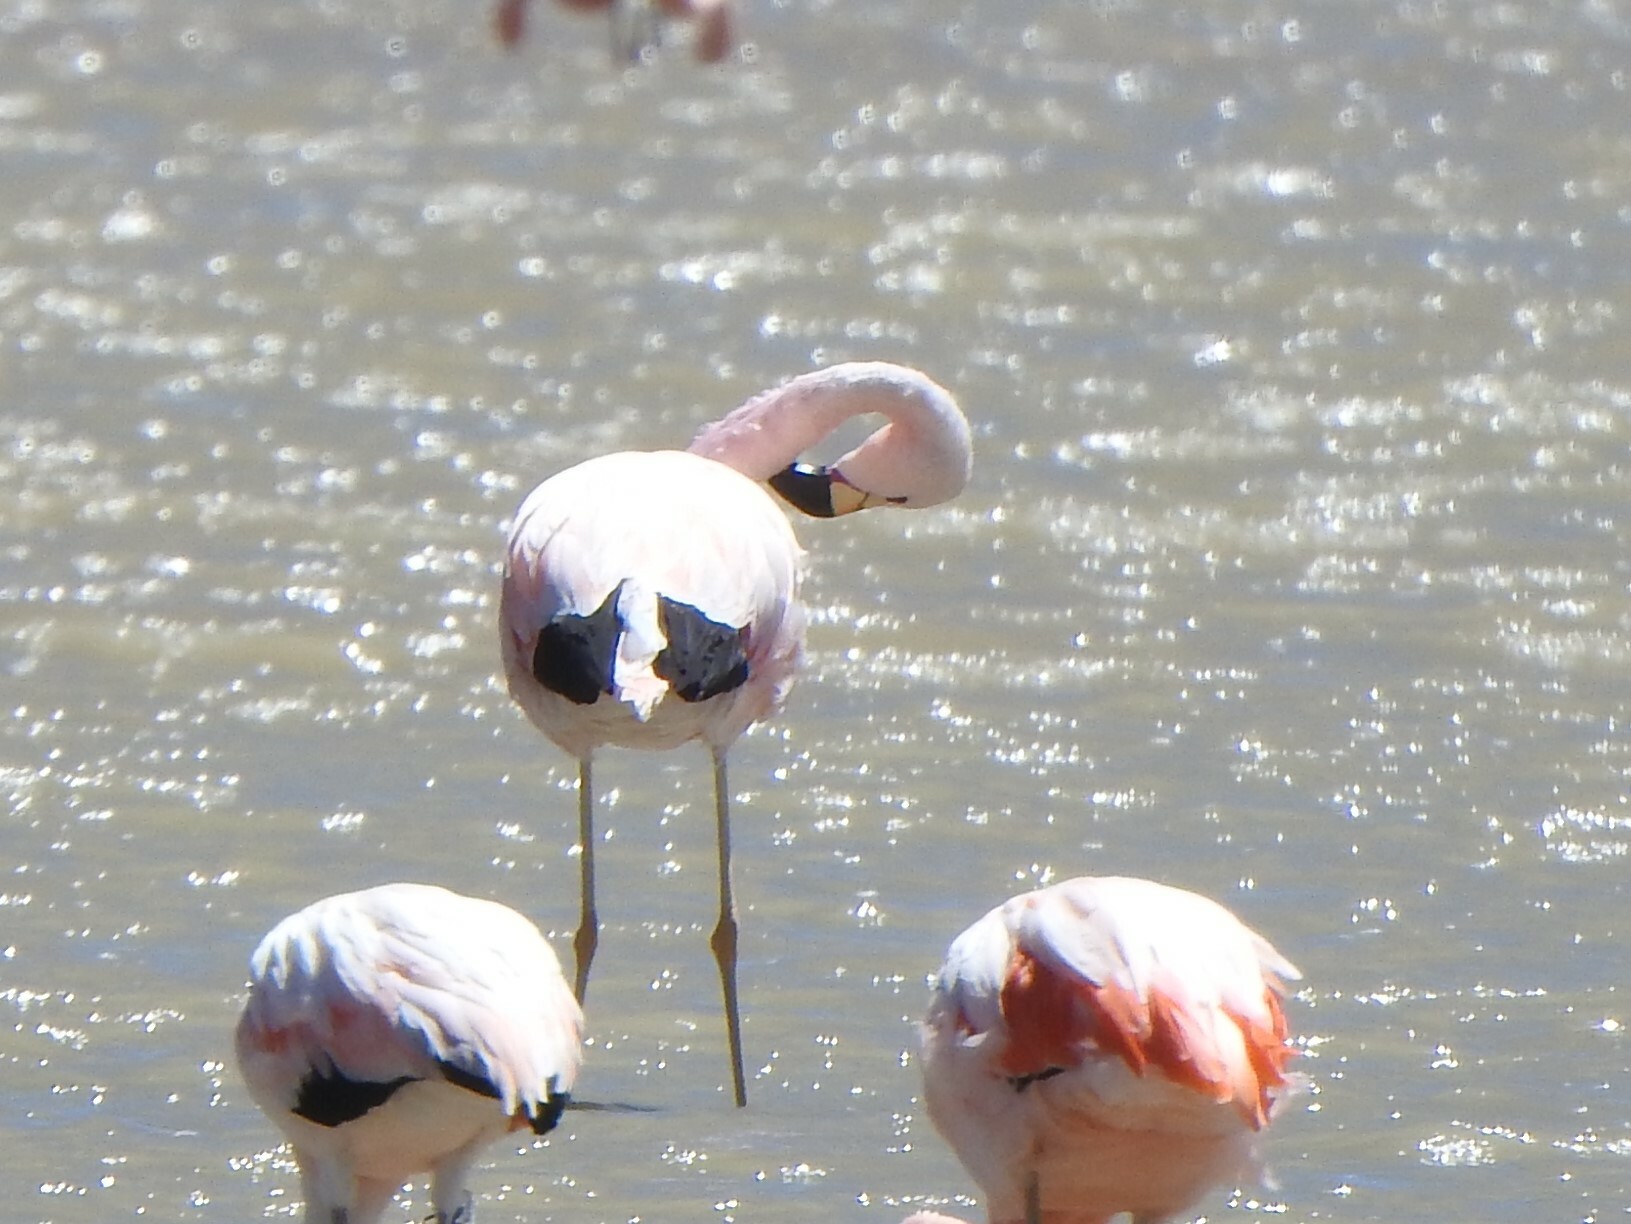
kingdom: Animalia
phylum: Chordata
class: Aves
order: Phoenicopteriformes
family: Phoenicopteridae
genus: Phoenicoparrus
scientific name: Phoenicoparrus andinus
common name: Andean flamingo
